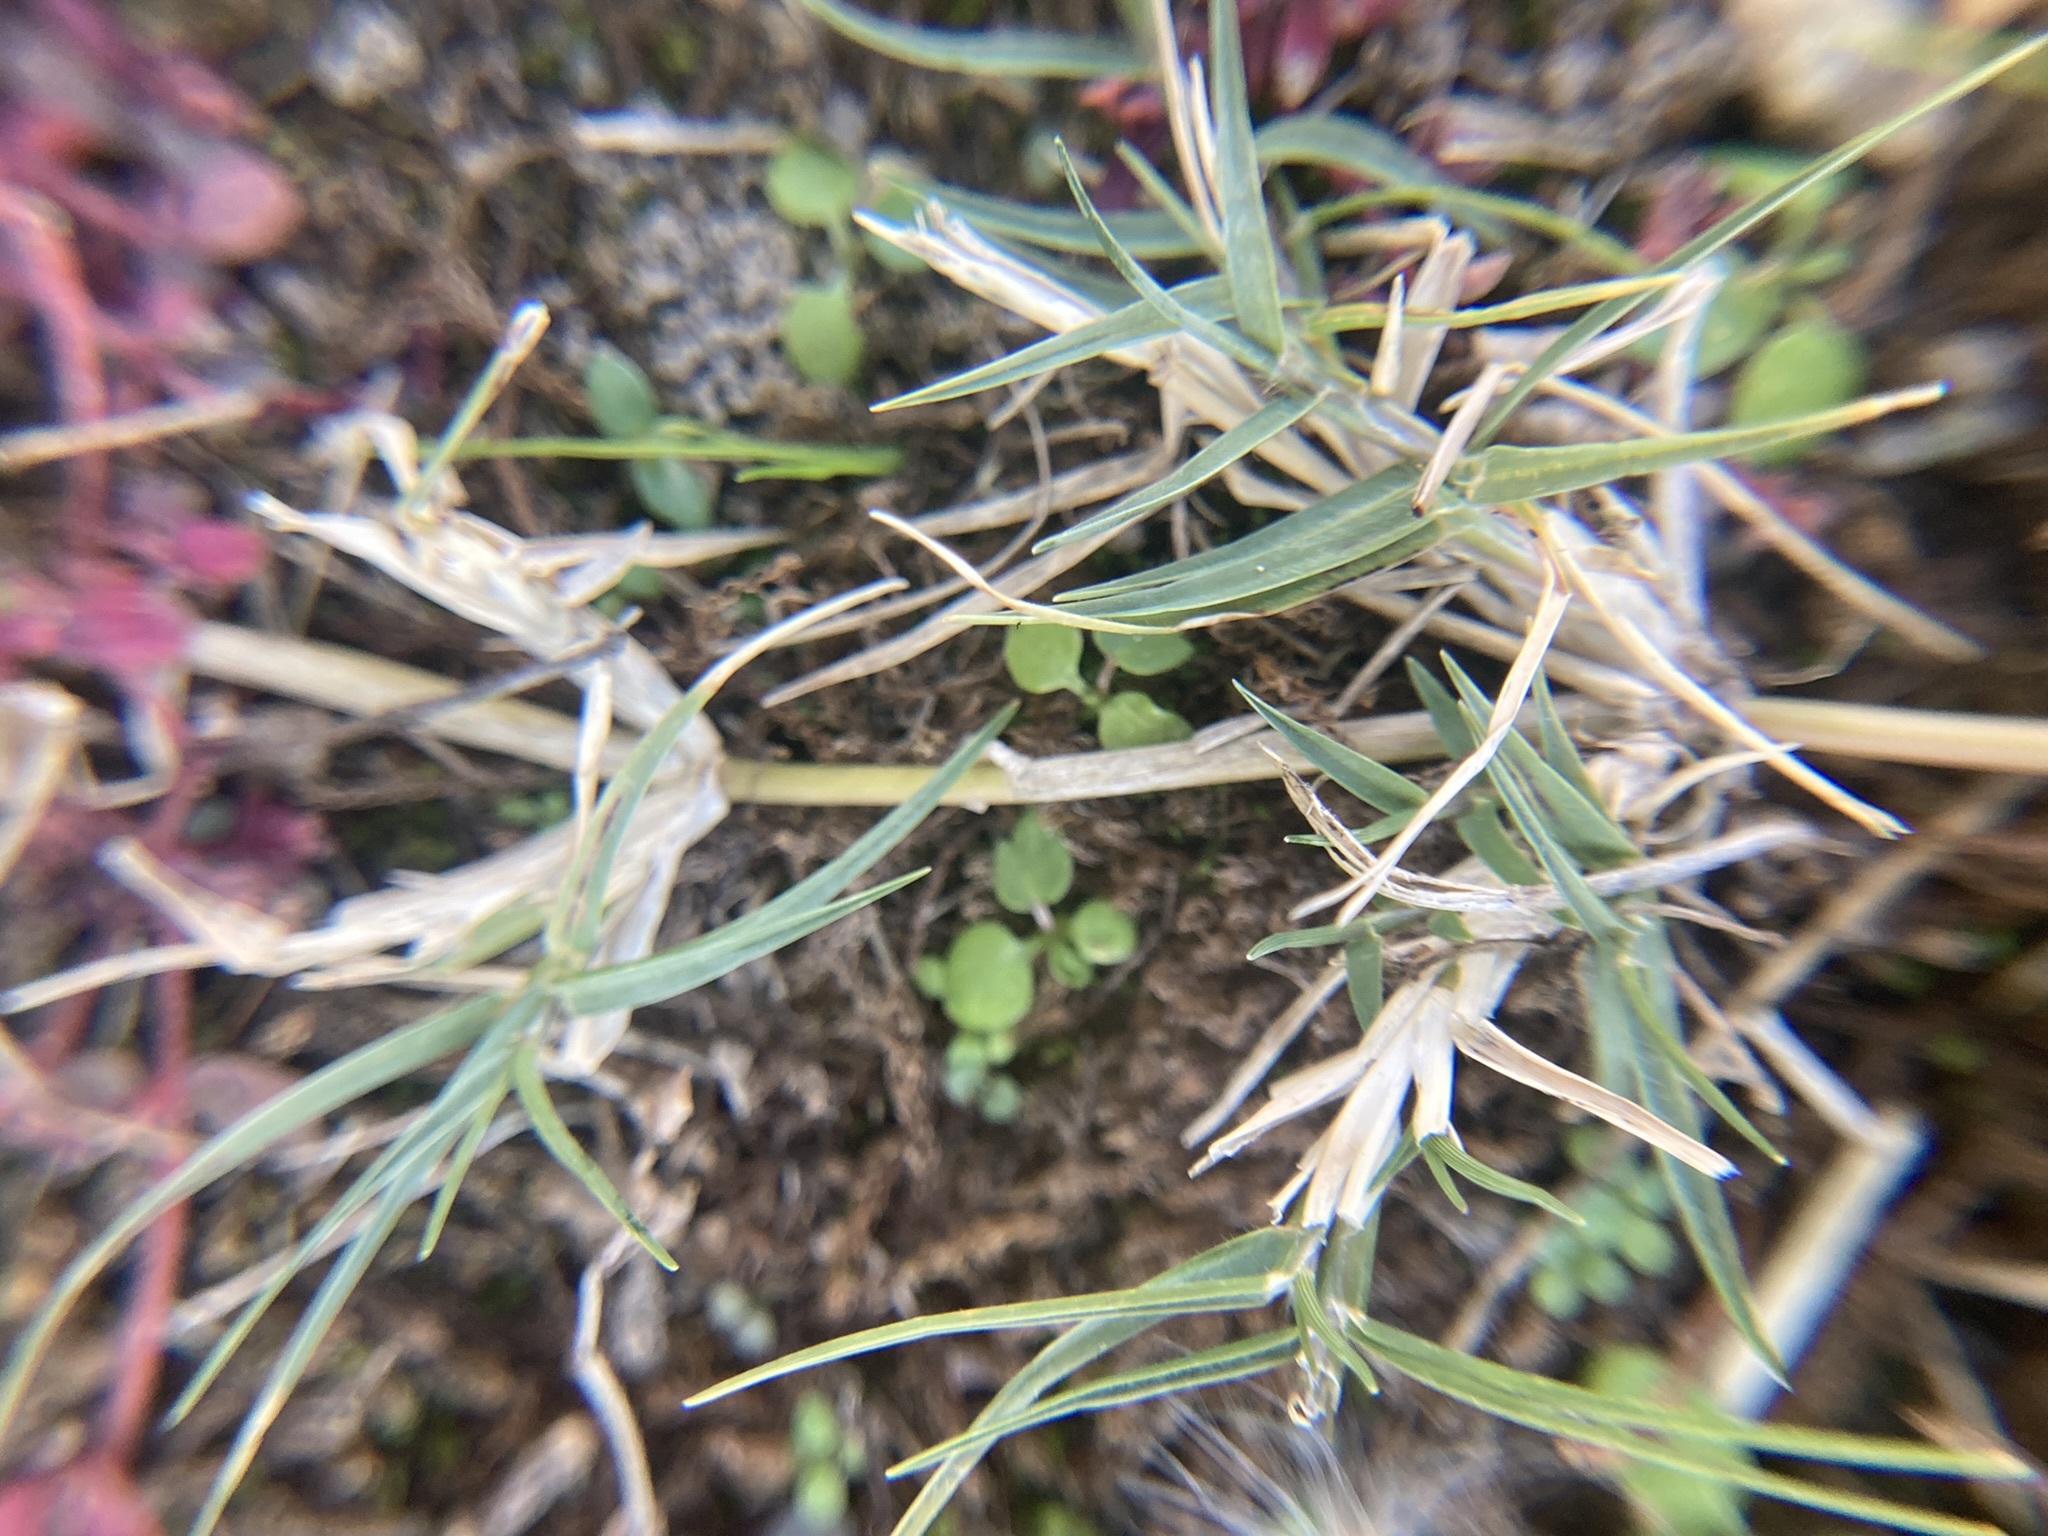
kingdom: Plantae
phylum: Tracheophyta
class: Liliopsida
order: Poales
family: Poaceae
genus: Cynodon
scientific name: Cynodon dactylon
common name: Bermuda grass
